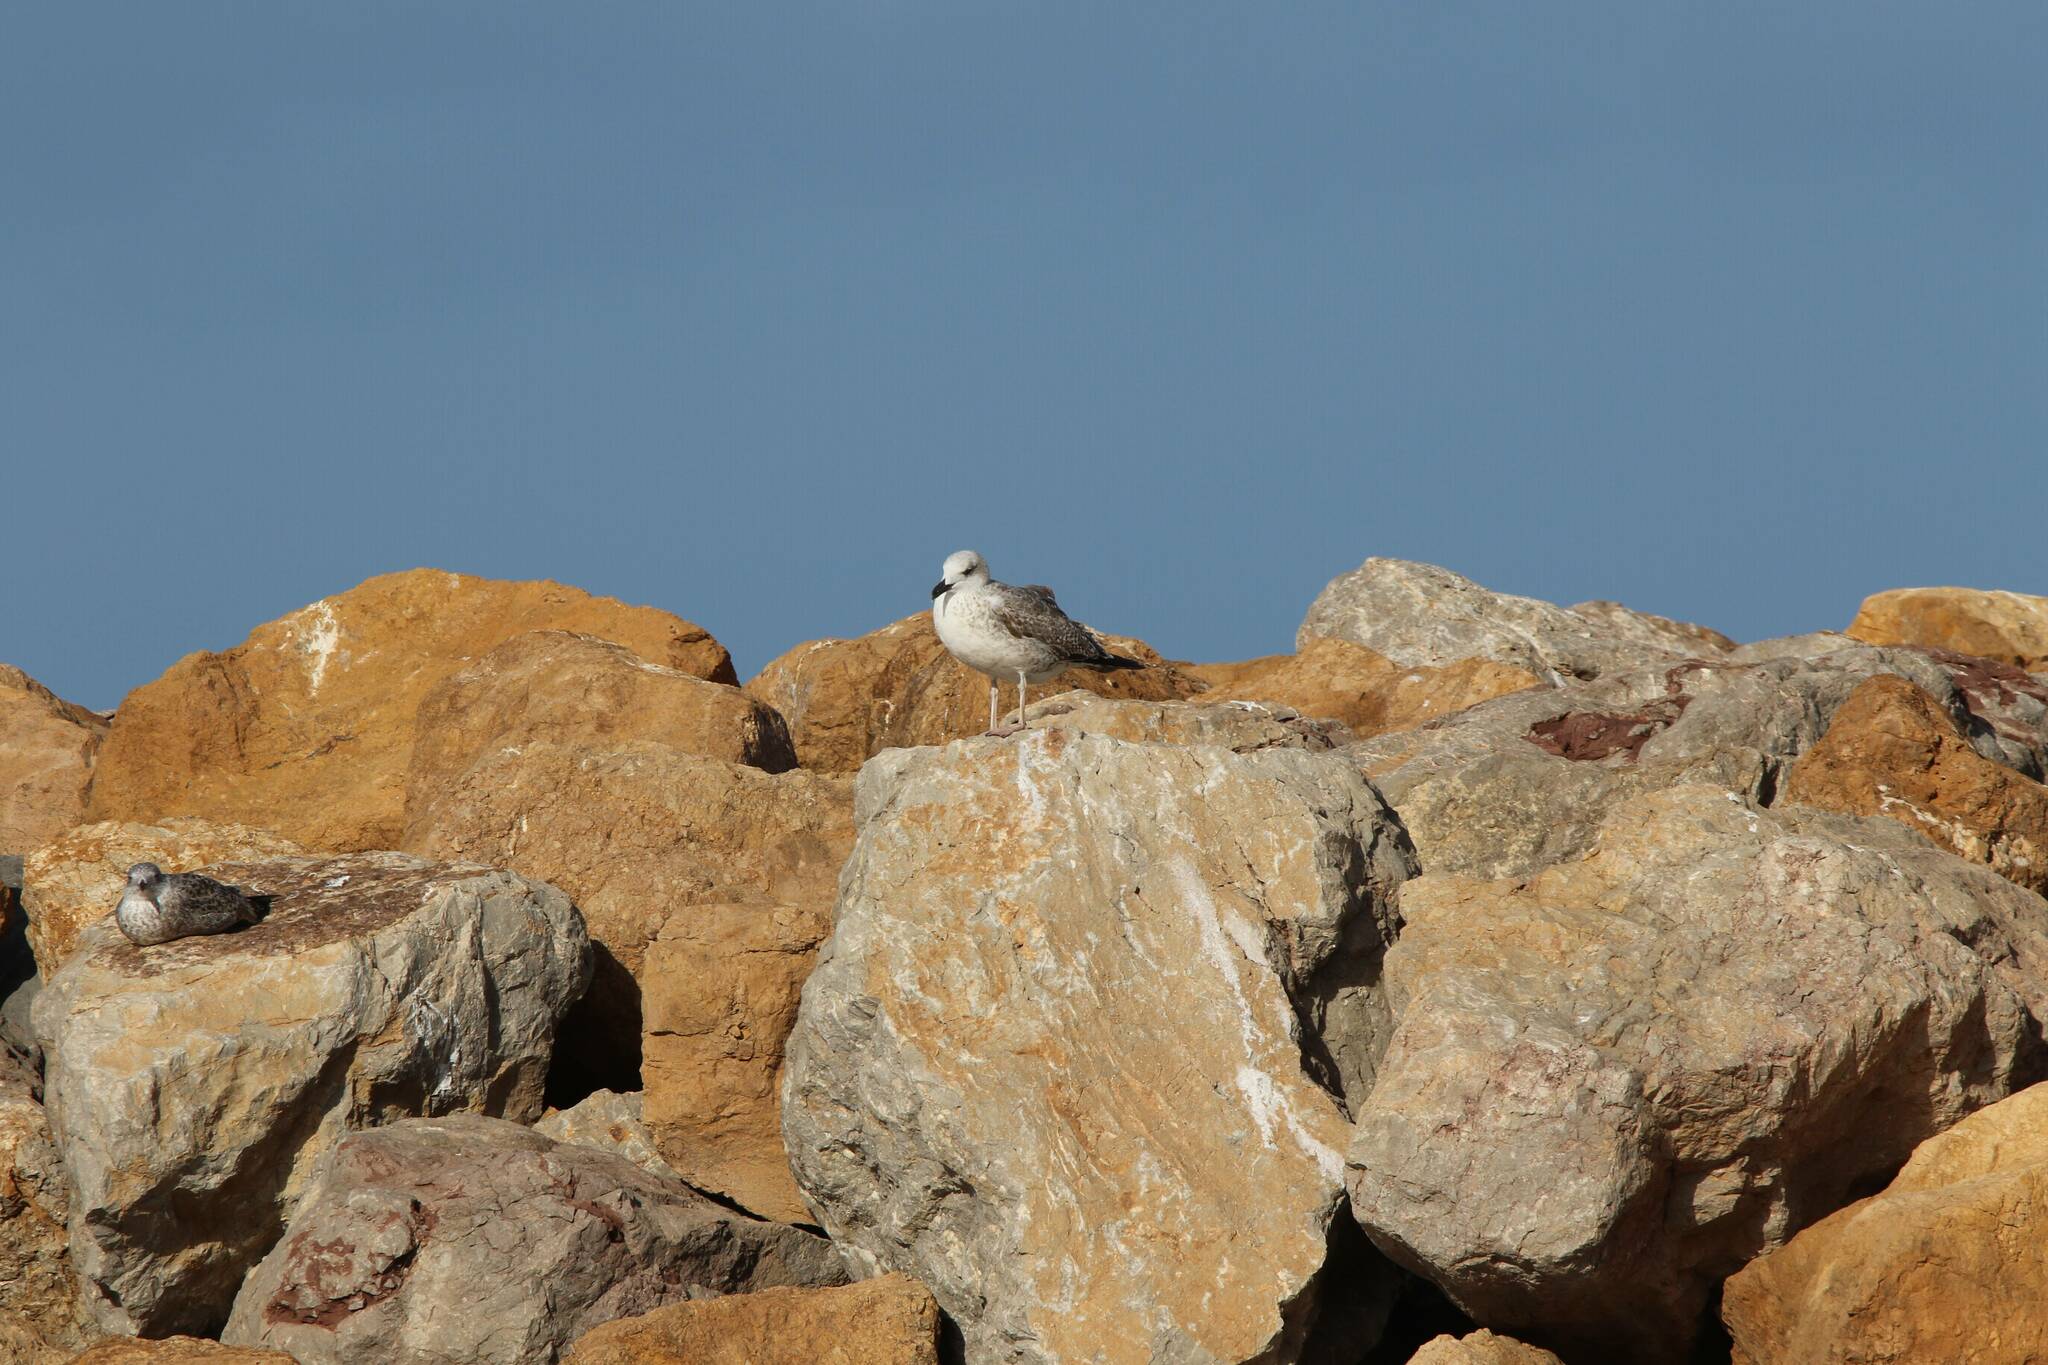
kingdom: Animalia
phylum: Chordata
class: Aves
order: Charadriiformes
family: Laridae
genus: Larus
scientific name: Larus michahellis
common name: Yellow-legged gull
